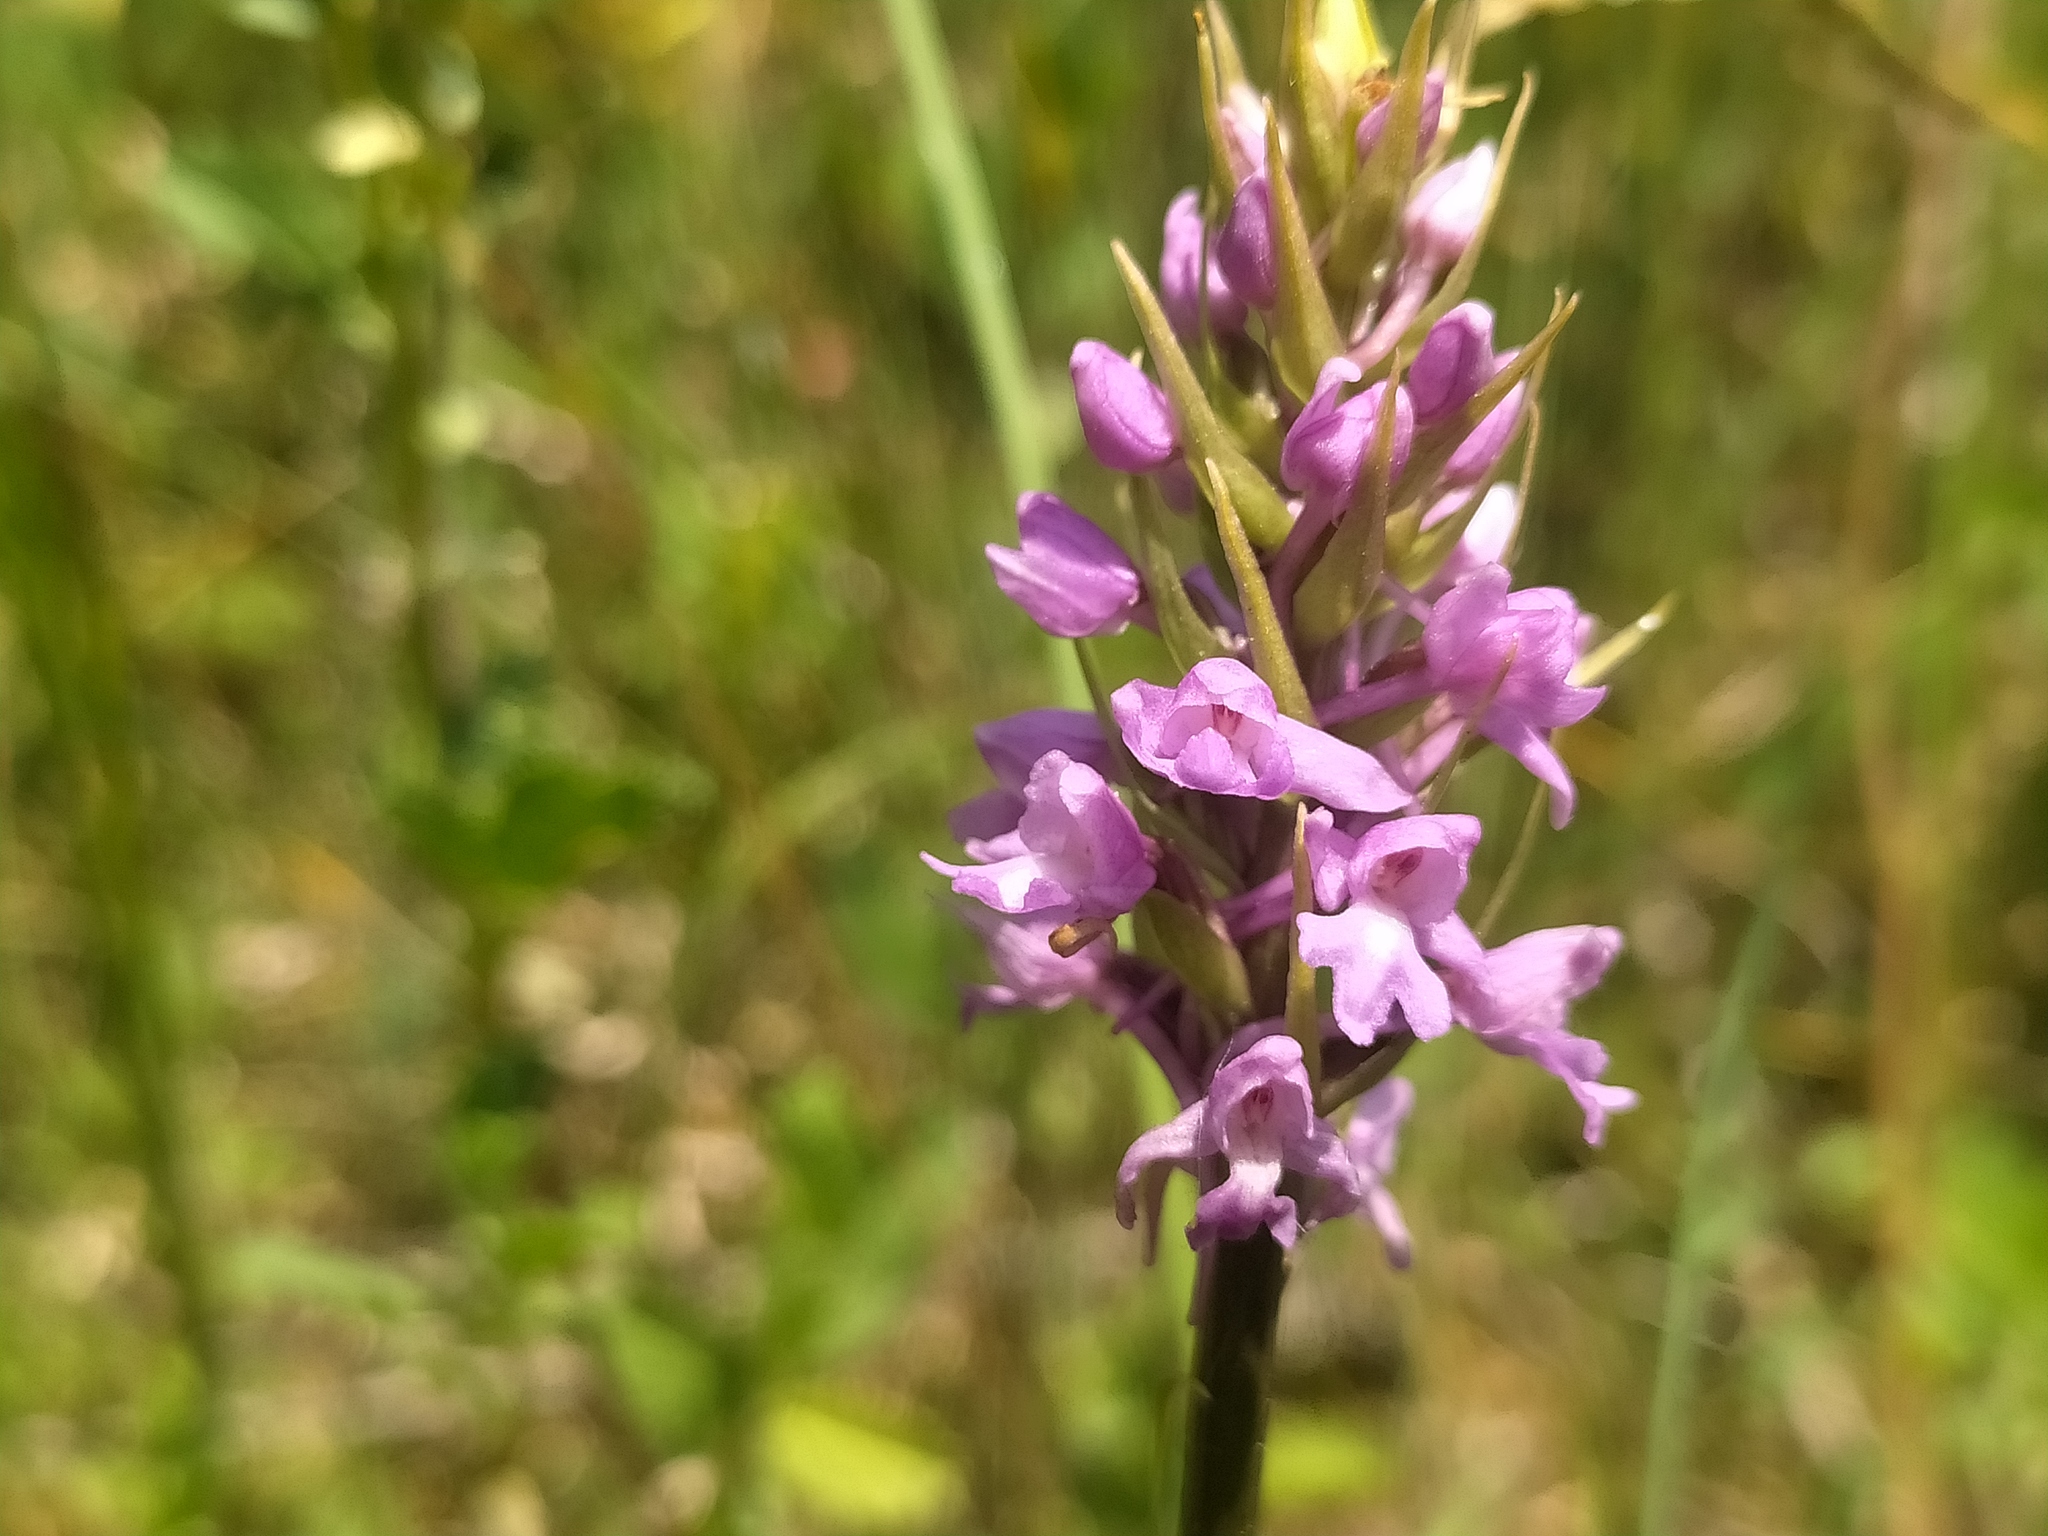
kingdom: Plantae
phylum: Tracheophyta
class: Liliopsida
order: Asparagales
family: Orchidaceae
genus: Gymnadenia
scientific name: Gymnadenia conopsea
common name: Fragrant orchid
